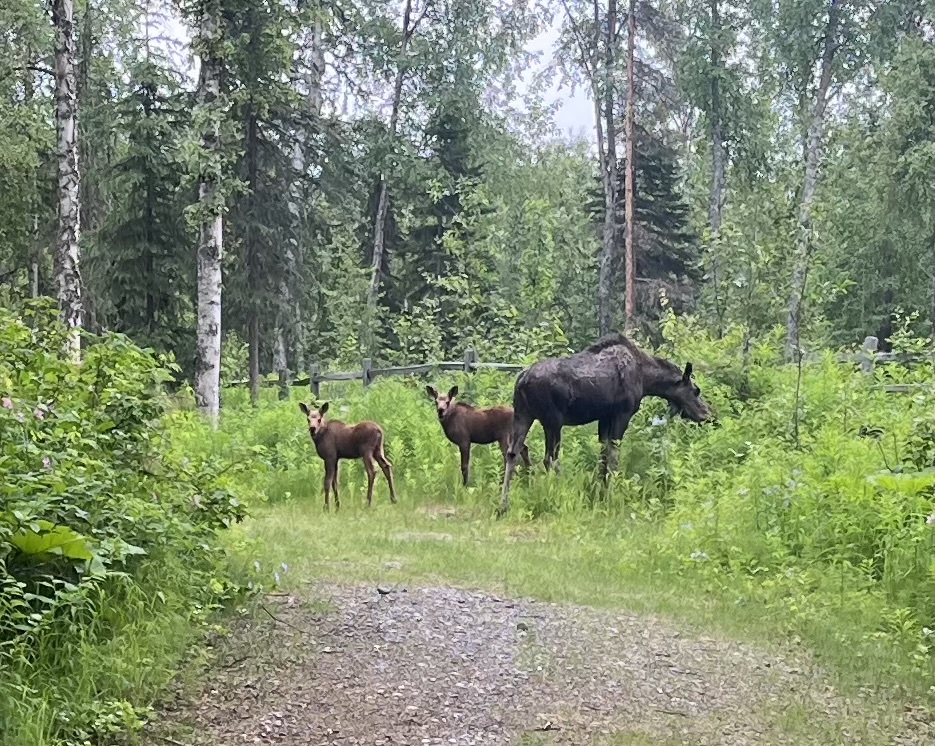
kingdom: Animalia
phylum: Chordata
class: Mammalia
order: Artiodactyla
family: Cervidae
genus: Alces
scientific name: Alces alces
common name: Moose
